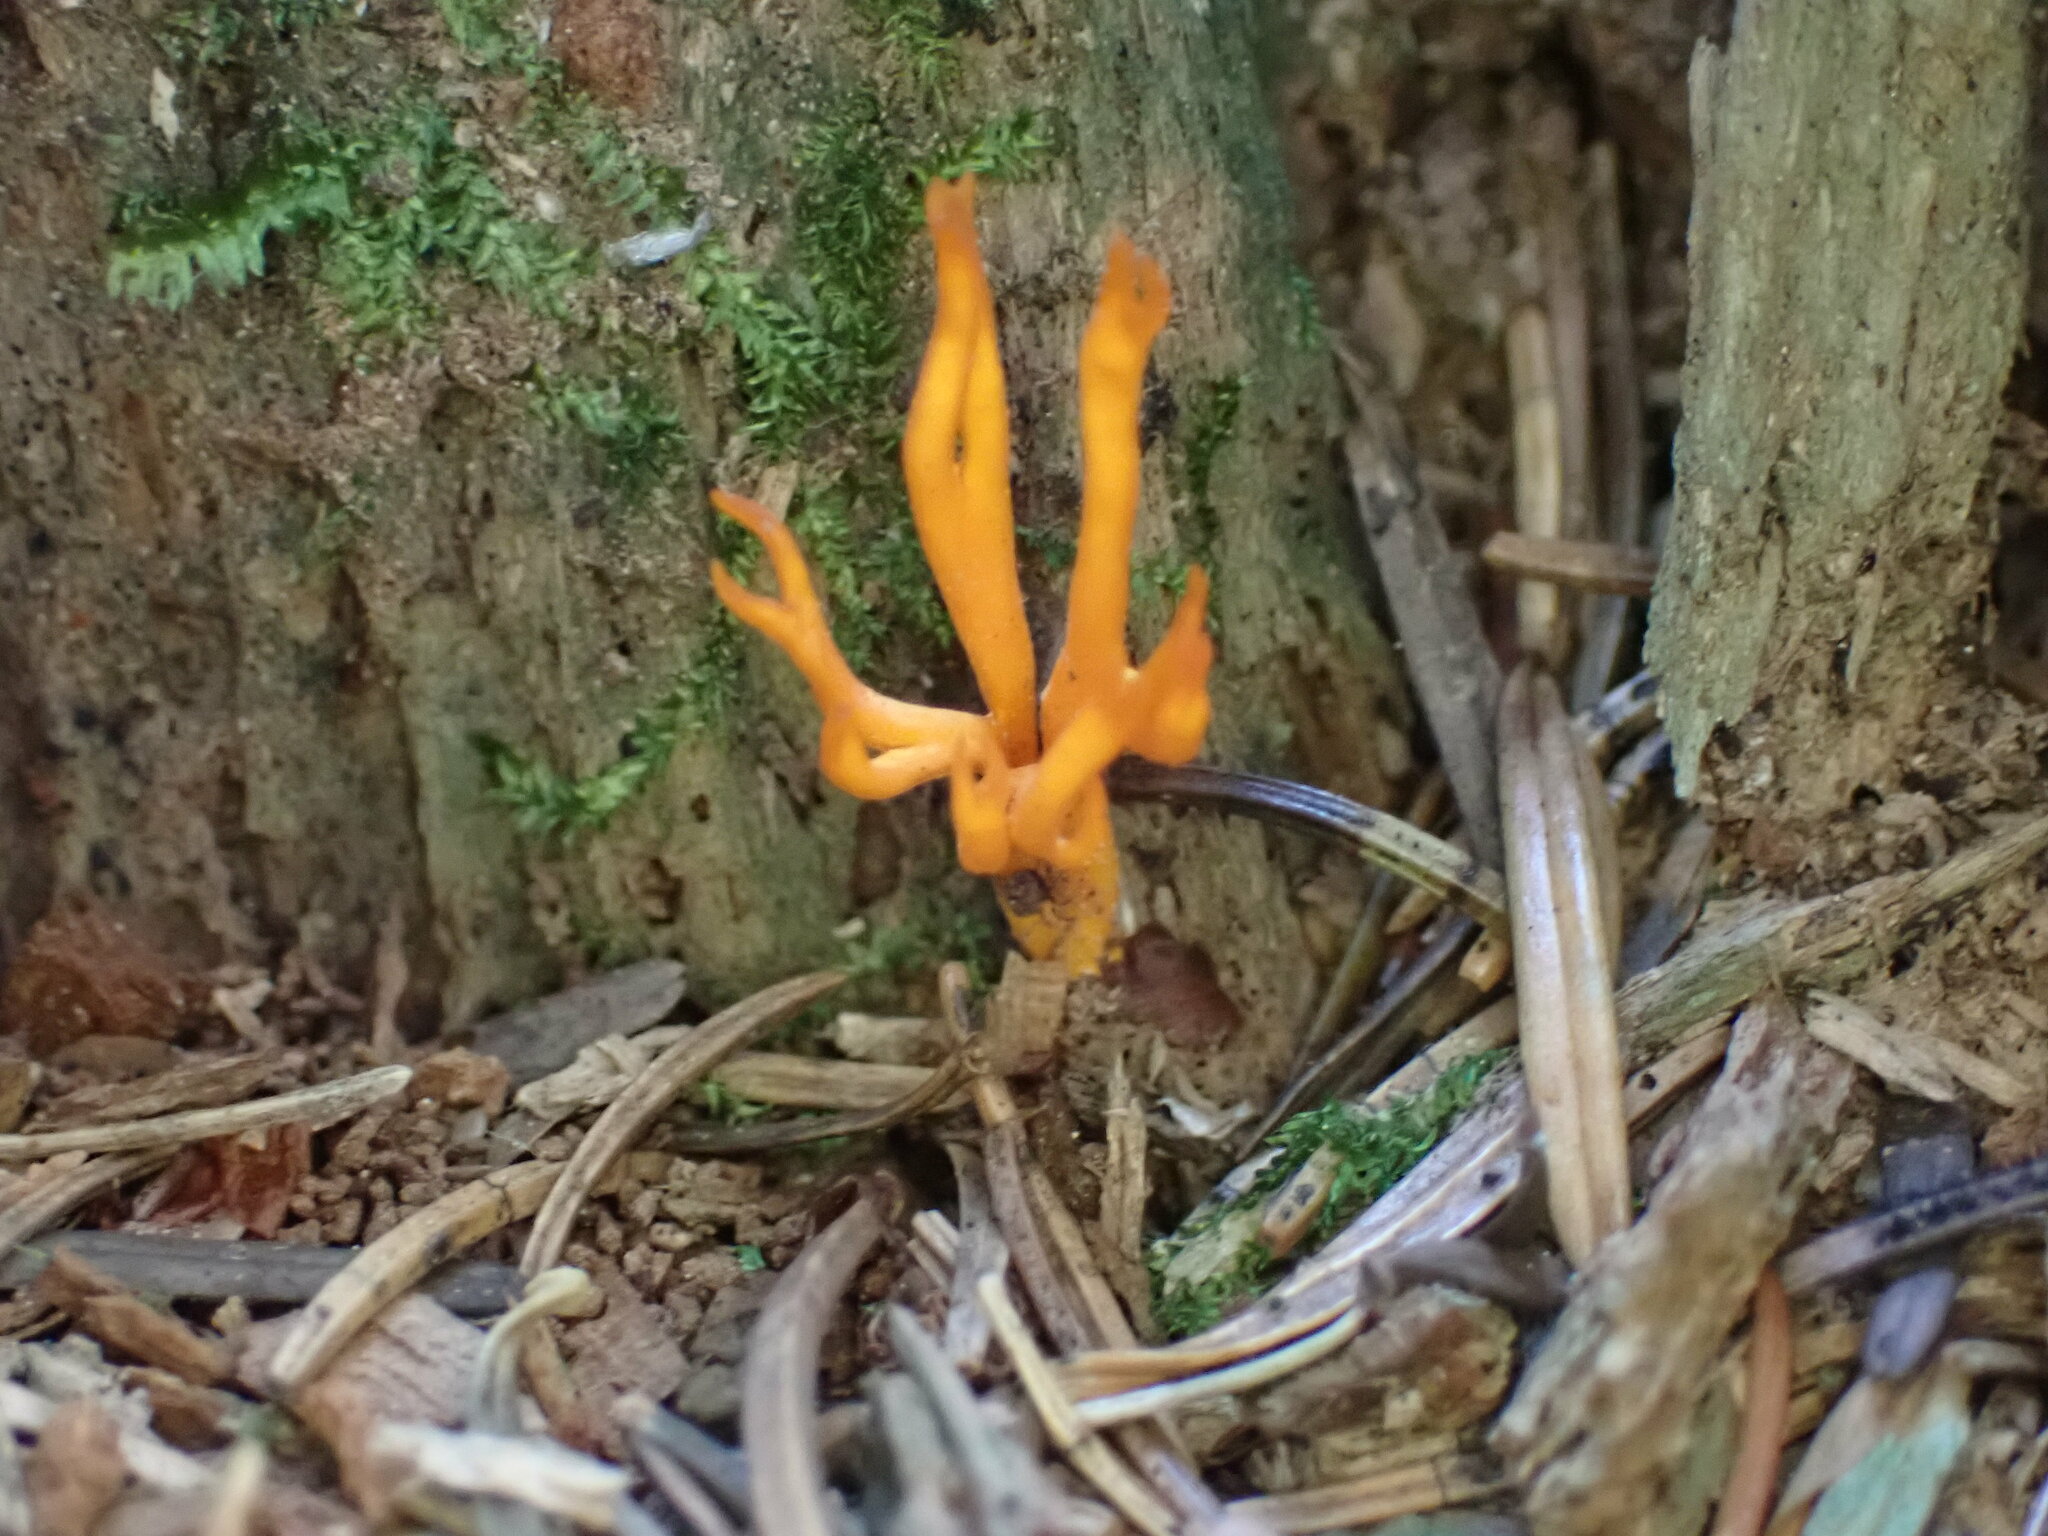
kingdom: Fungi
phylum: Basidiomycota
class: Dacrymycetes
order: Dacrymycetales
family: Dacrymycetaceae
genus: Calocera
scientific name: Calocera viscosa
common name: Yellow stagshorn
